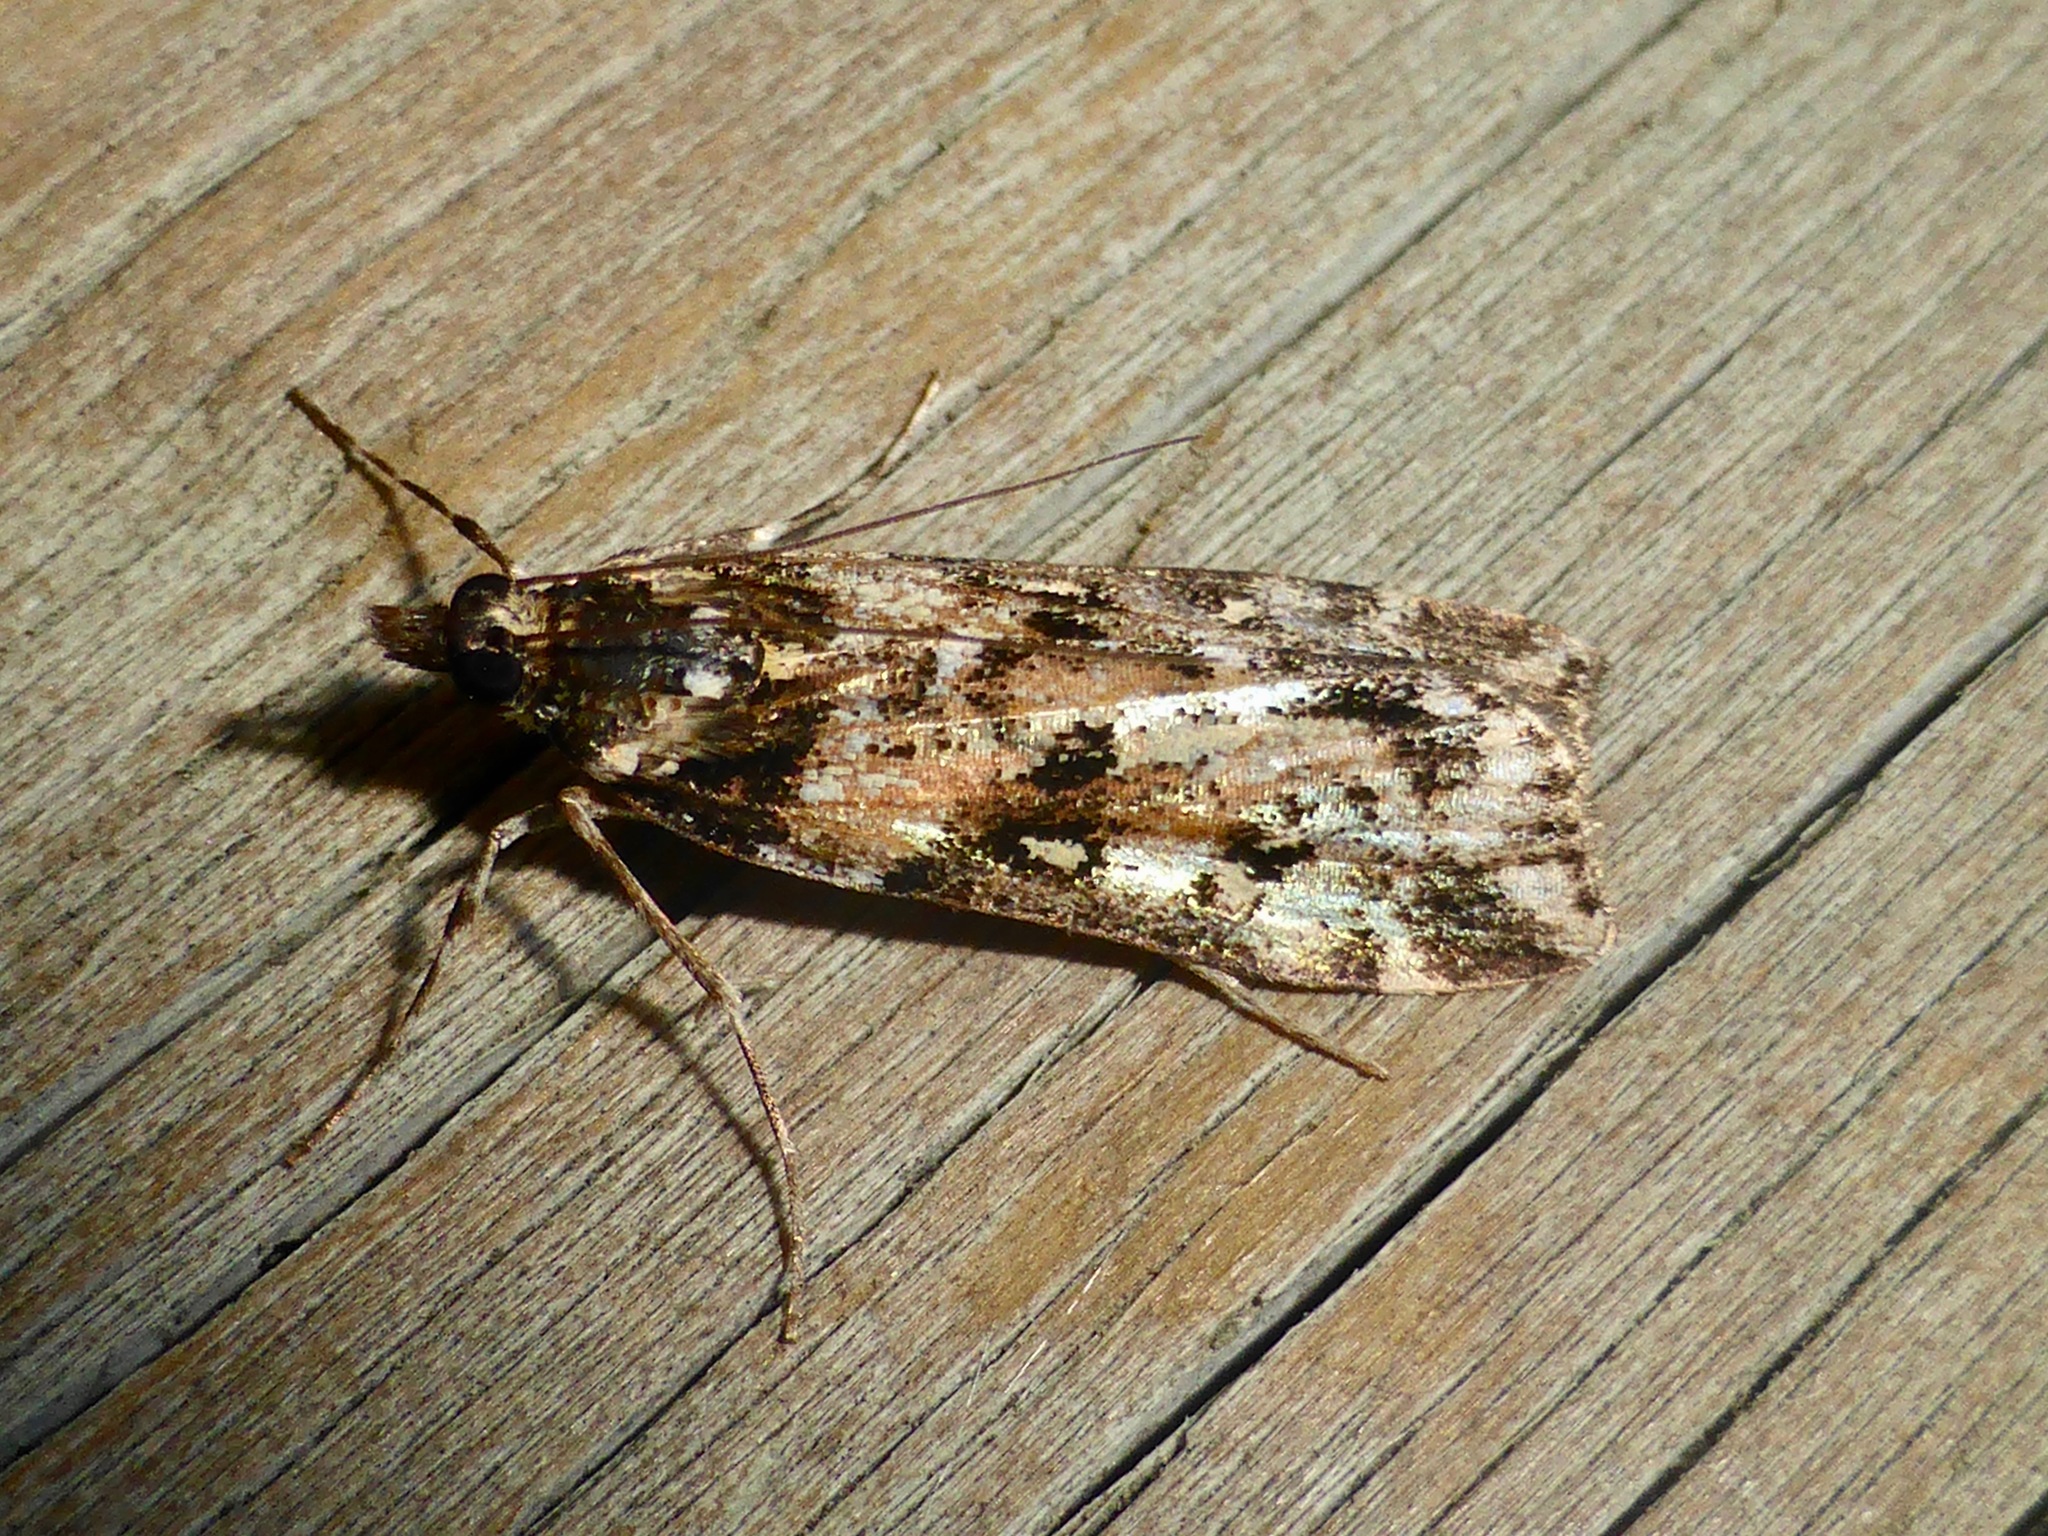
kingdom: Animalia
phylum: Arthropoda
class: Insecta
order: Lepidoptera
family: Crambidae
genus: Eudonia
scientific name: Eudonia diphtheralis
